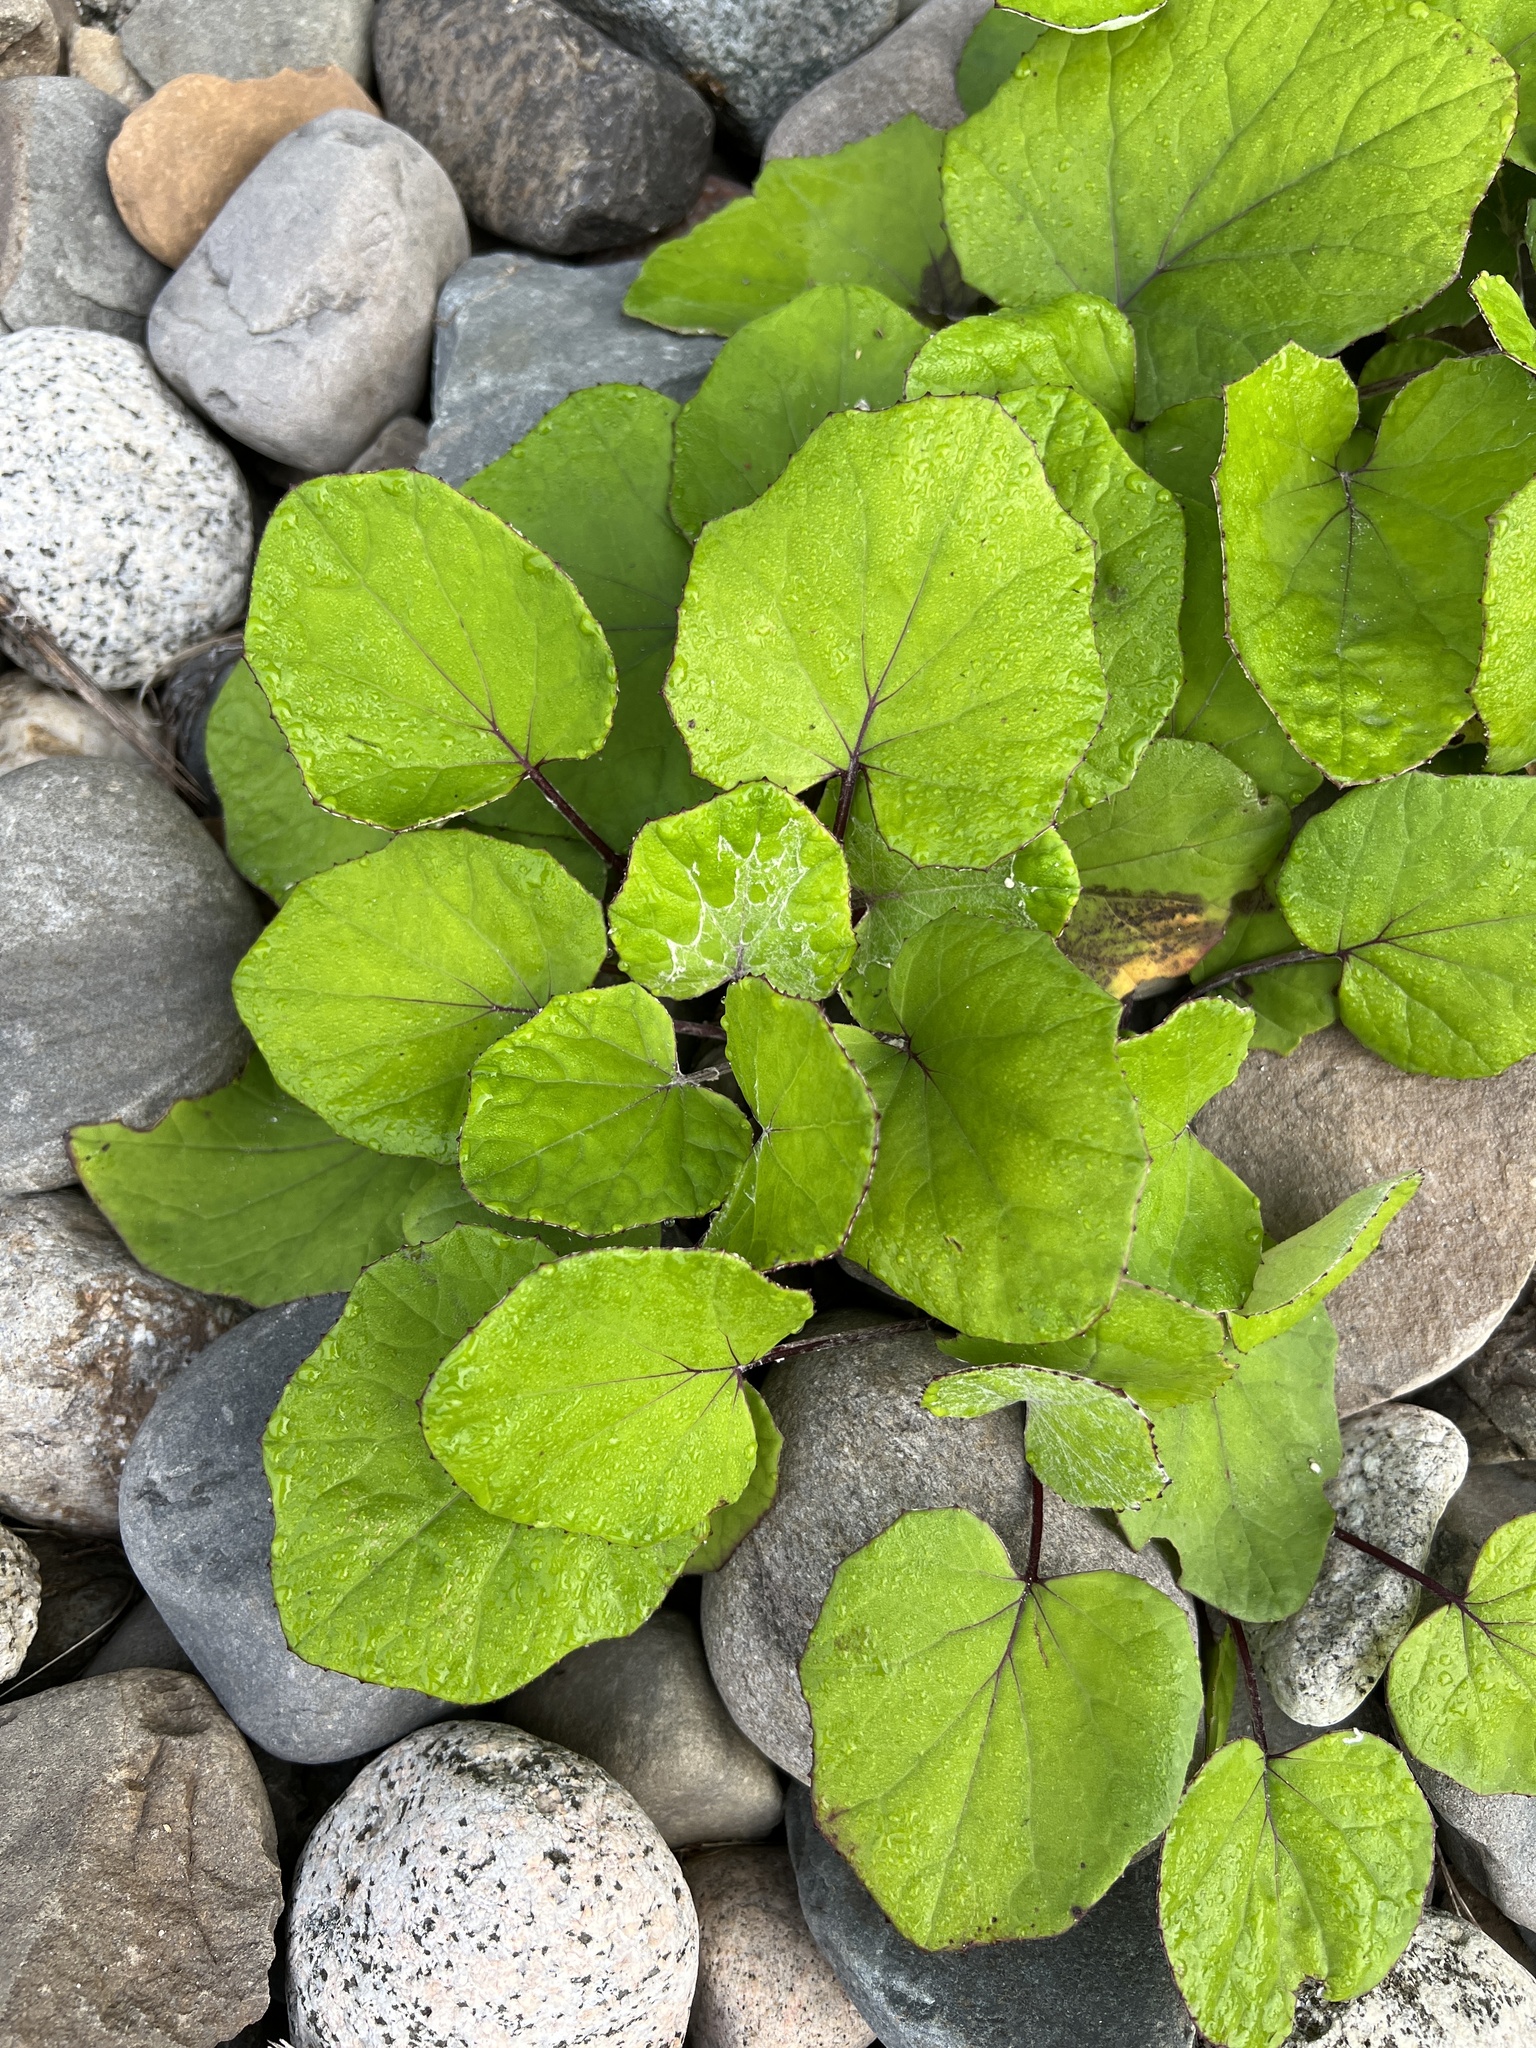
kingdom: Plantae
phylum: Tracheophyta
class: Magnoliopsida
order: Asterales
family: Asteraceae
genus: Tussilago
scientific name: Tussilago farfara
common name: Coltsfoot
